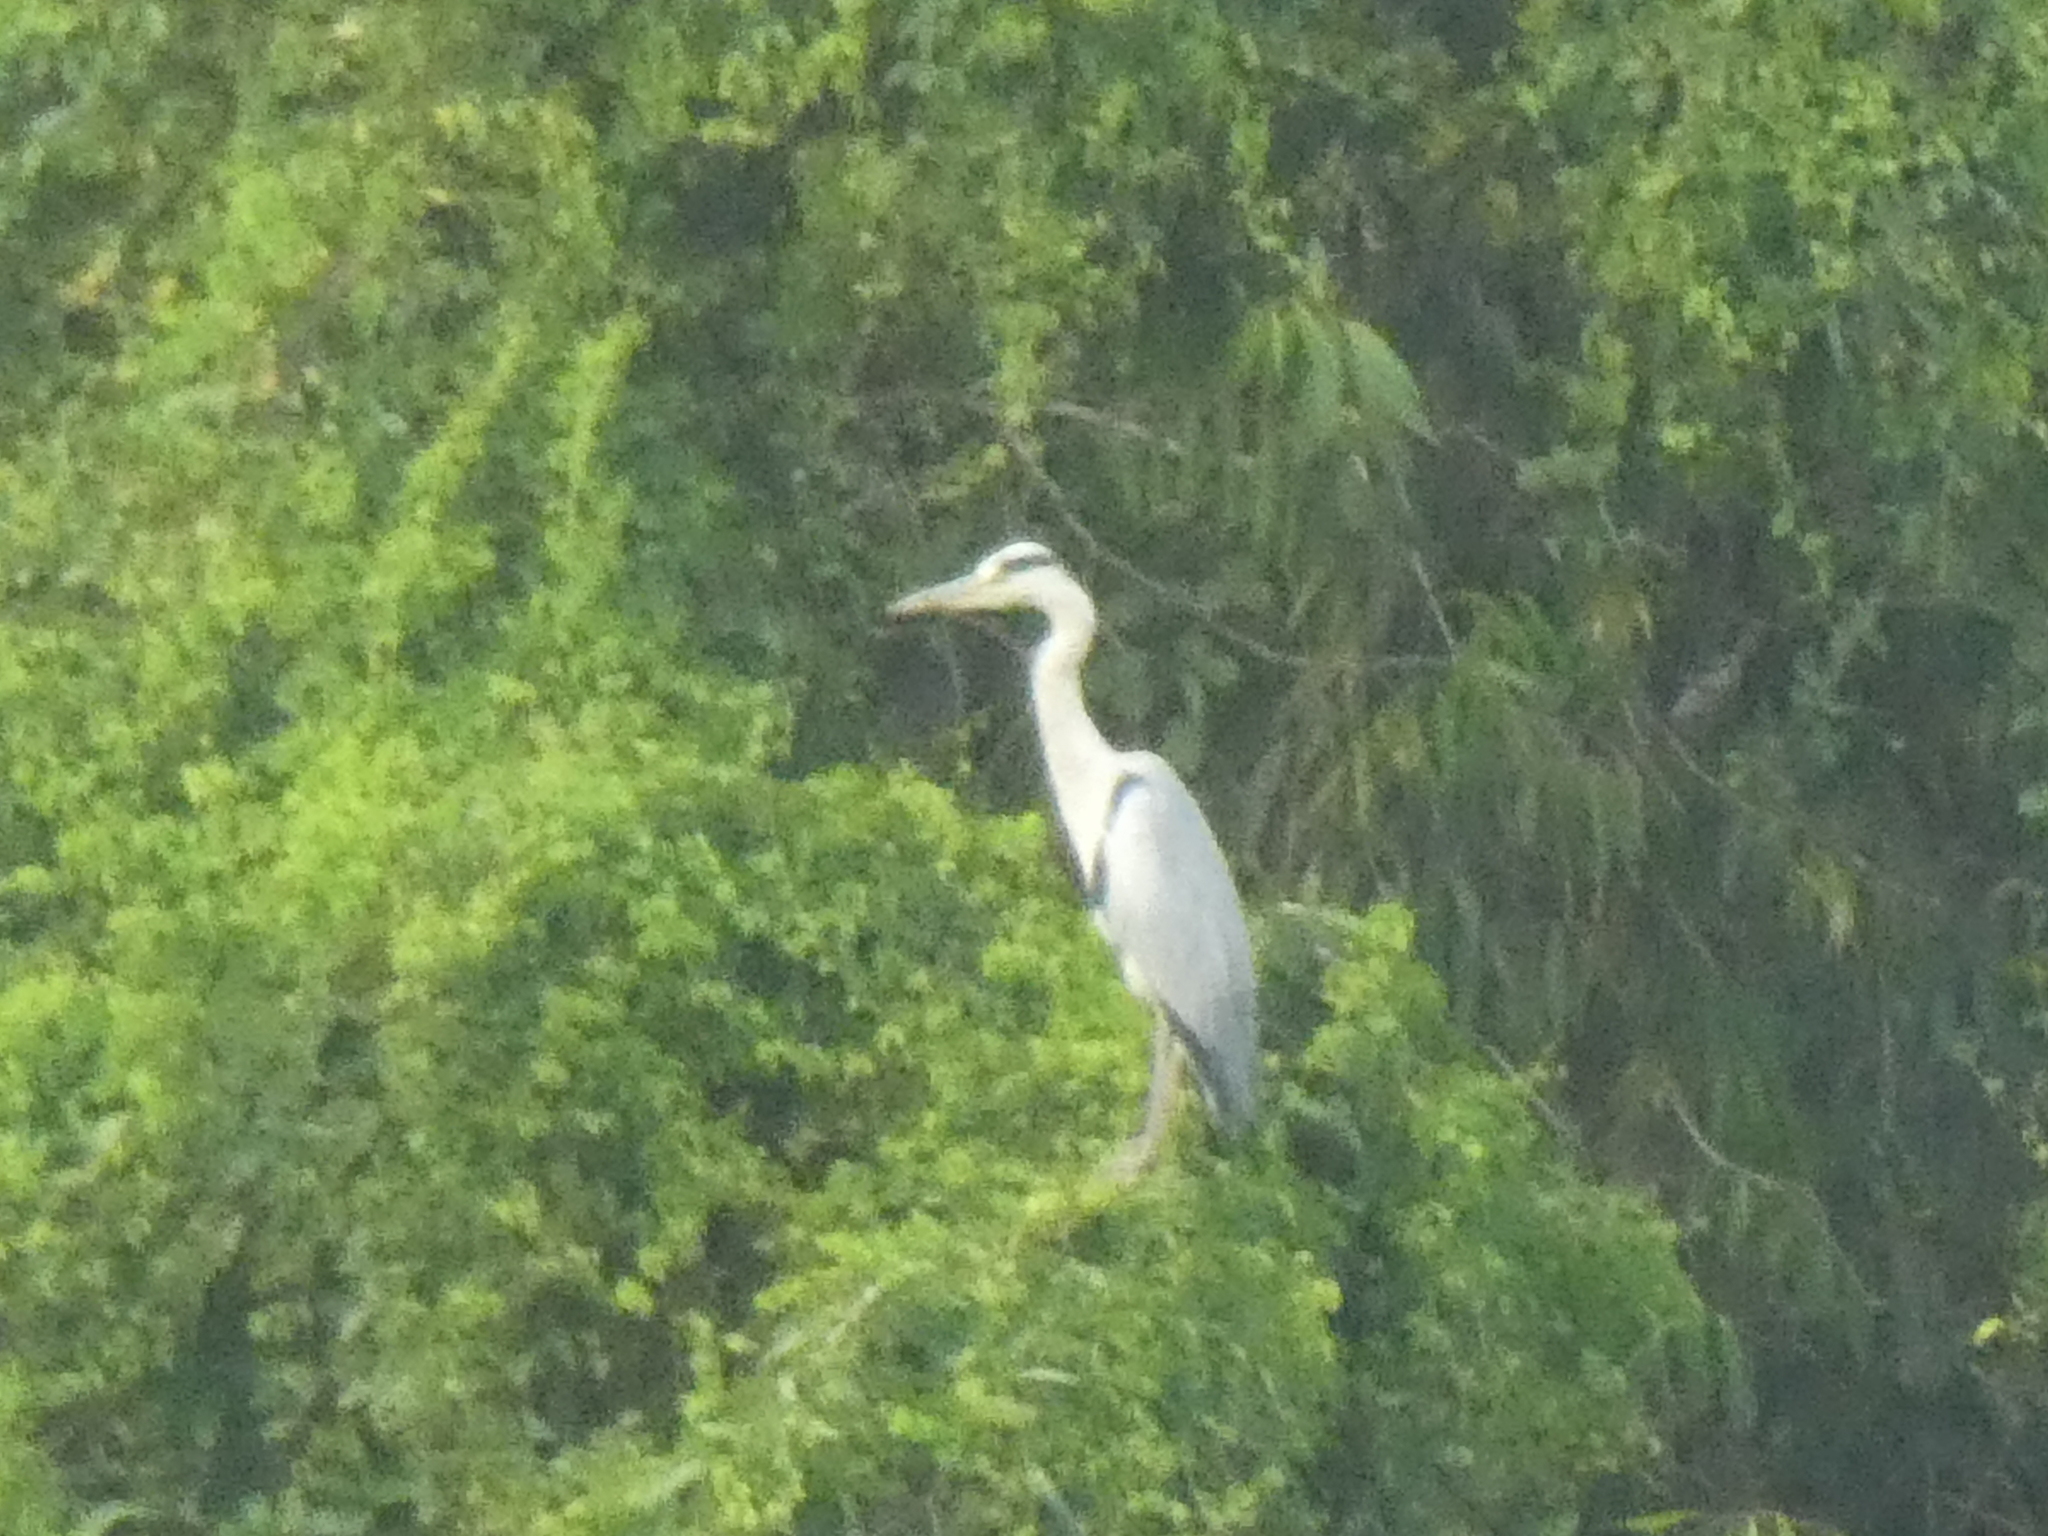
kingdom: Animalia
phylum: Chordata
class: Aves
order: Pelecaniformes
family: Ardeidae
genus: Ardea
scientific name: Ardea cinerea
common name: Grey heron
